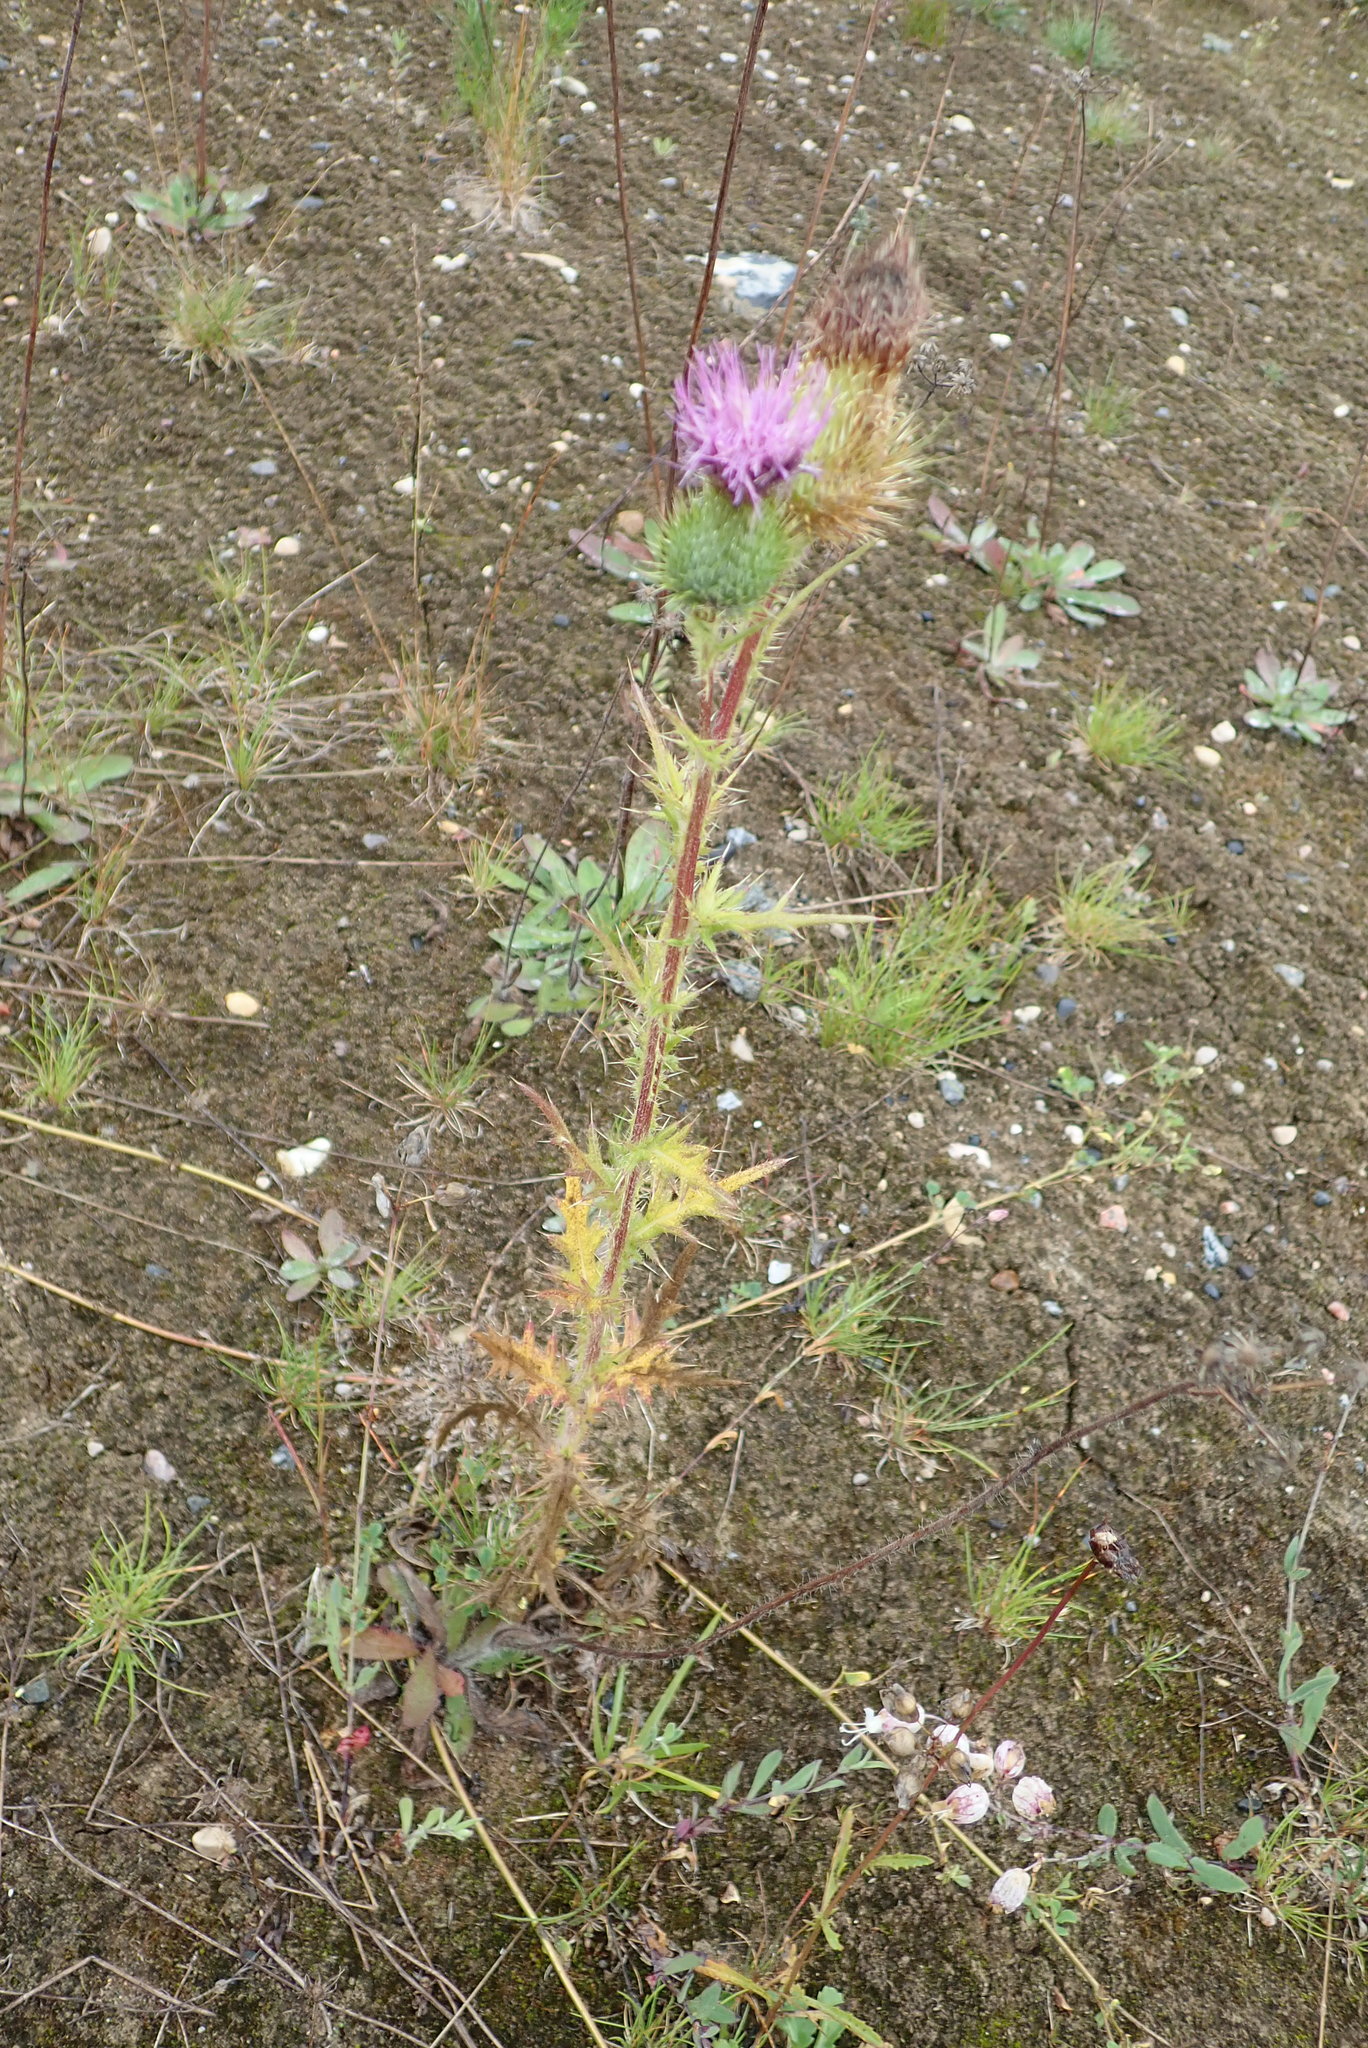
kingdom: Plantae
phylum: Tracheophyta
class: Magnoliopsida
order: Asterales
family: Asteraceae
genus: Cirsium
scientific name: Cirsium vulgare
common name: Bull thistle
